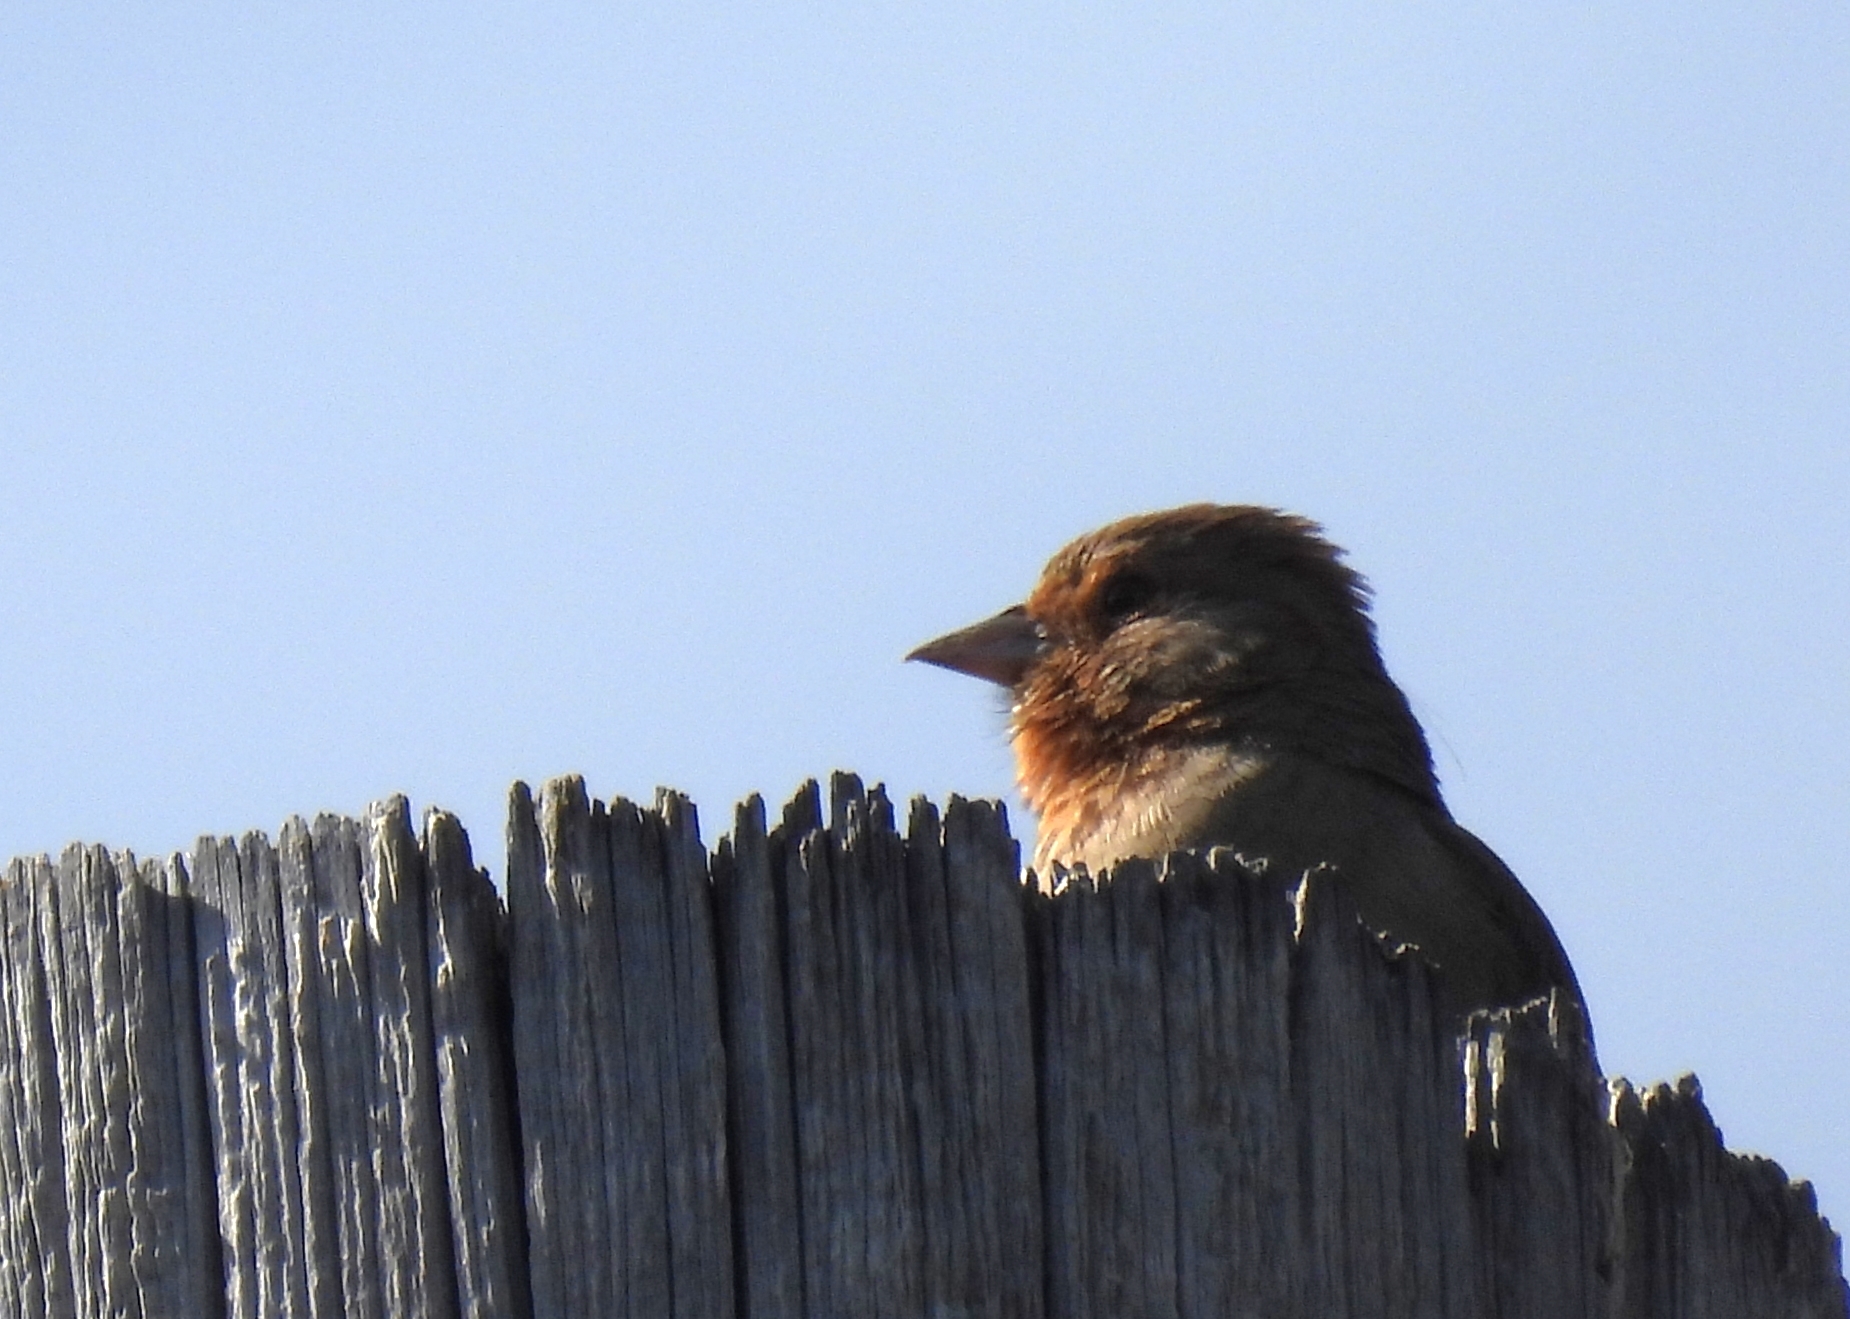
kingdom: Animalia
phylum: Chordata
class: Aves
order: Passeriformes
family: Passerellidae
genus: Melozone
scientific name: Melozone crissalis
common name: California towhee
